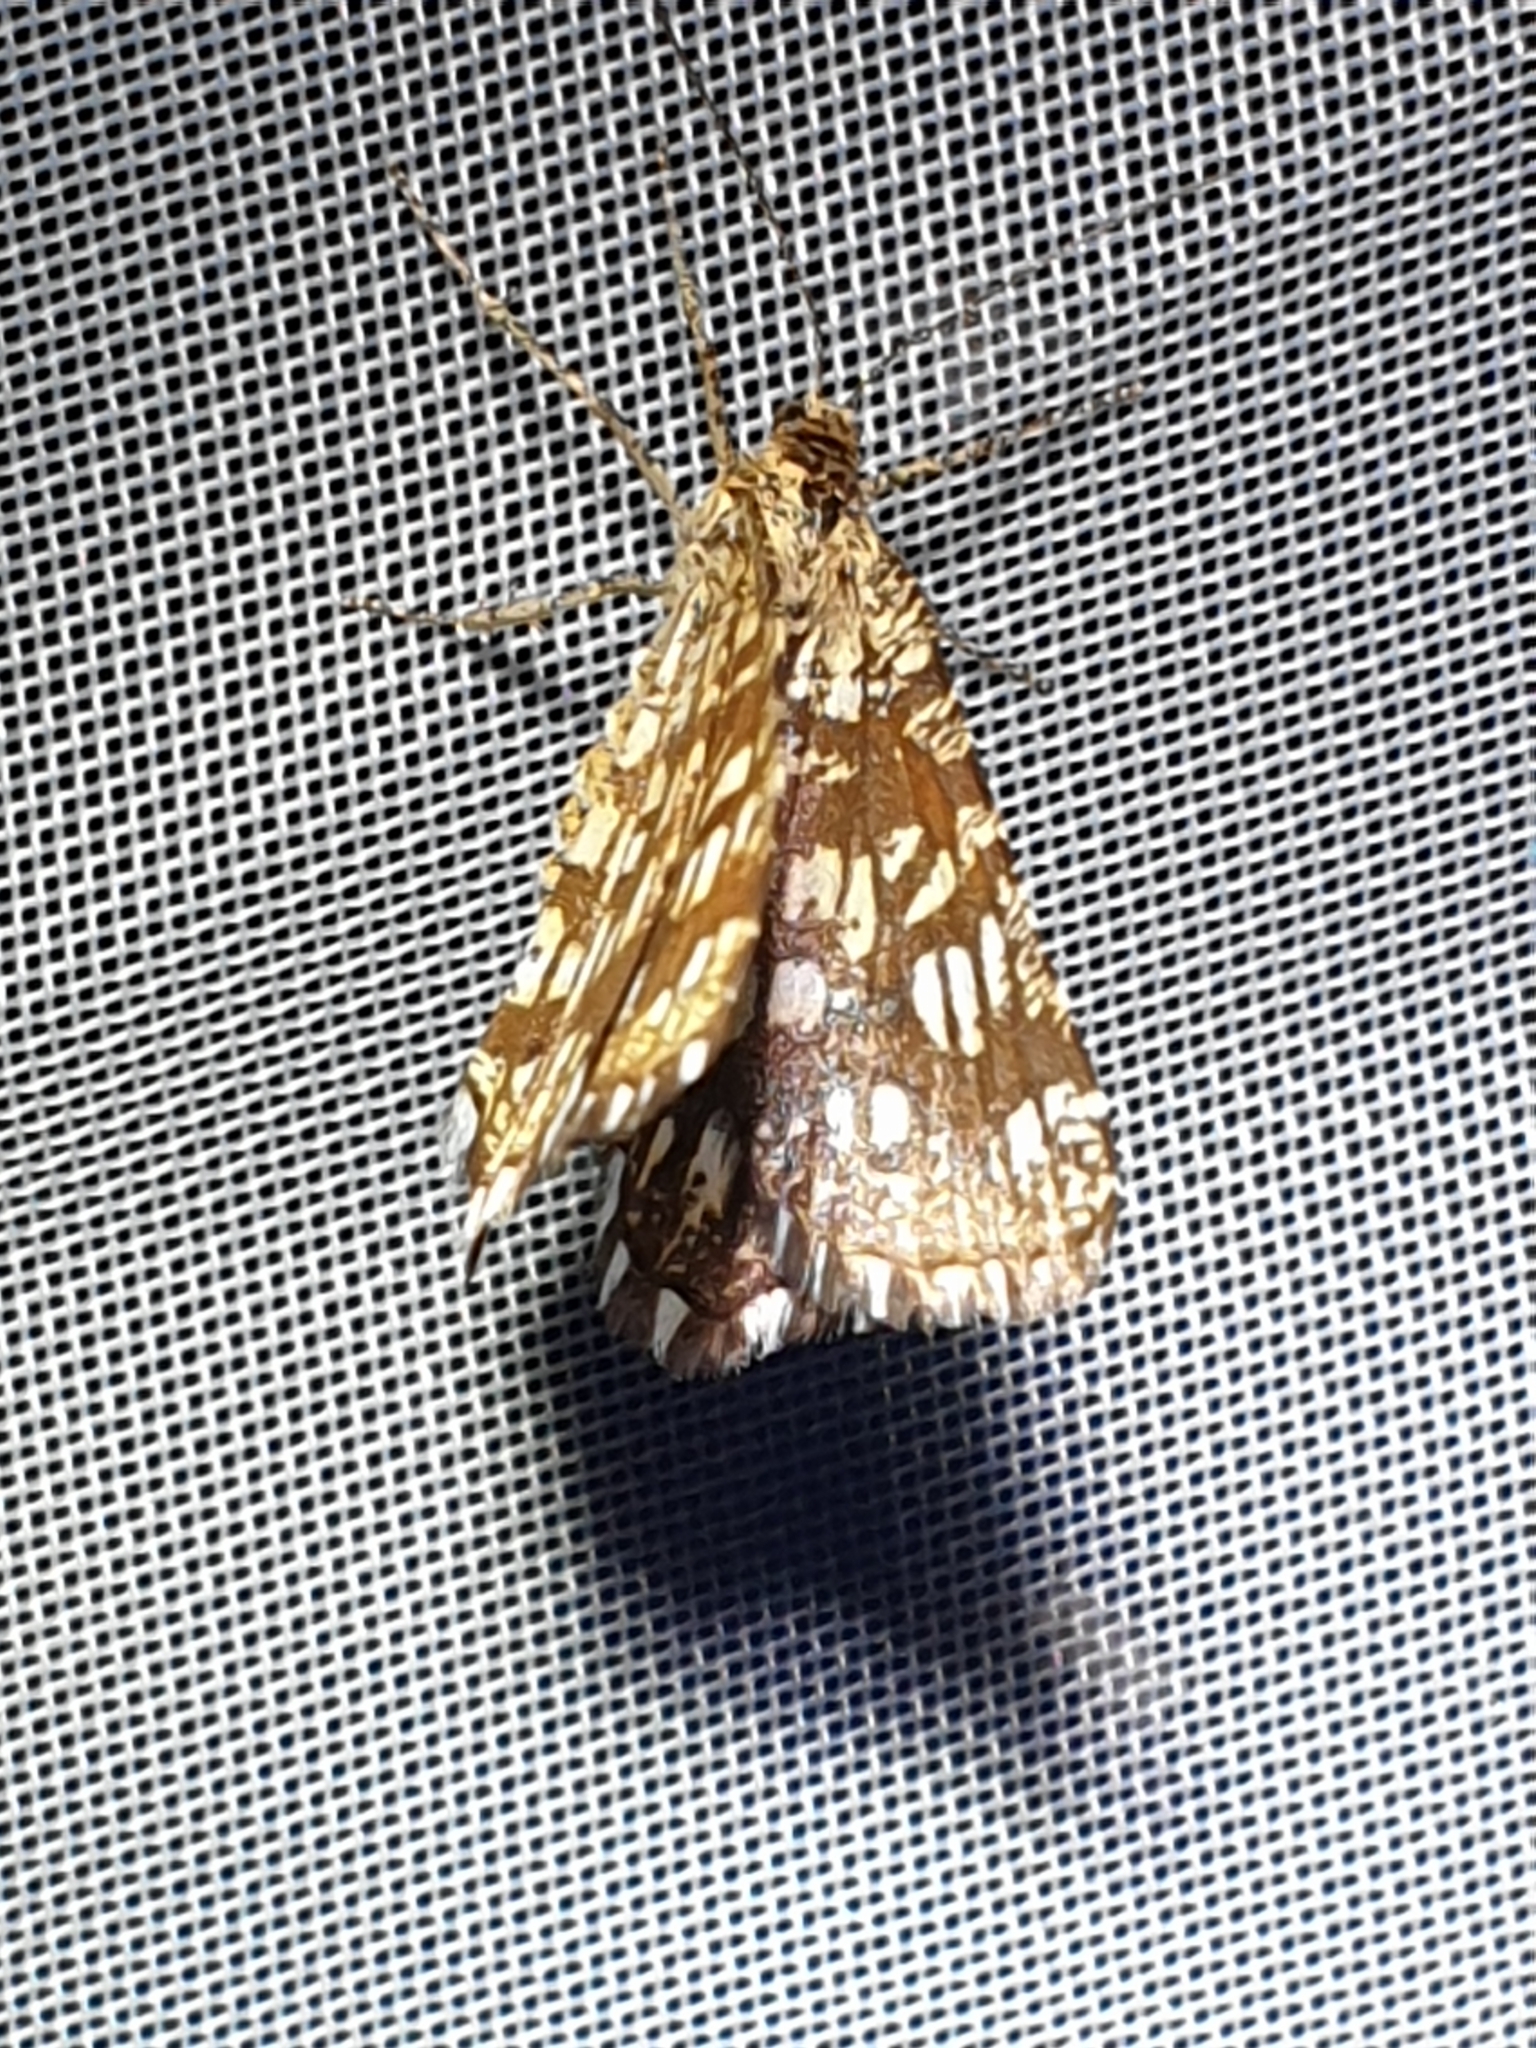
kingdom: Animalia
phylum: Arthropoda
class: Insecta
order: Lepidoptera
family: Geometridae
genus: Chiasmia
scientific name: Chiasmia clathrata
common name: Latticed heath
